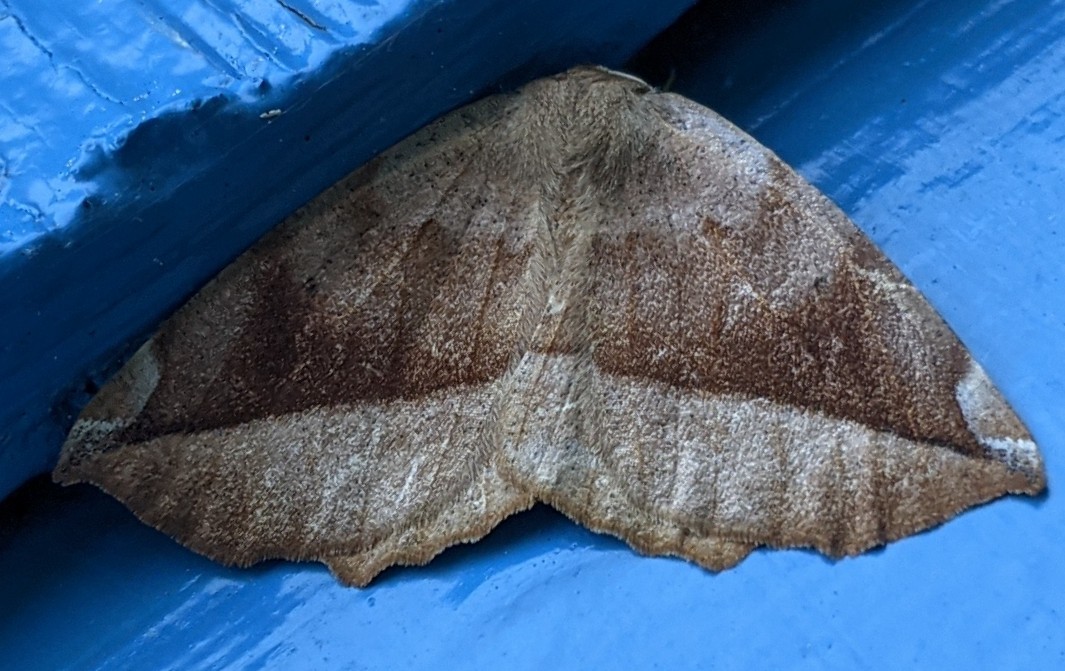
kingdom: Animalia
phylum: Arthropoda
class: Insecta
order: Lepidoptera
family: Geometridae
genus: Eutrapela
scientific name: Eutrapela clemataria
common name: Curved-toothed geometer
